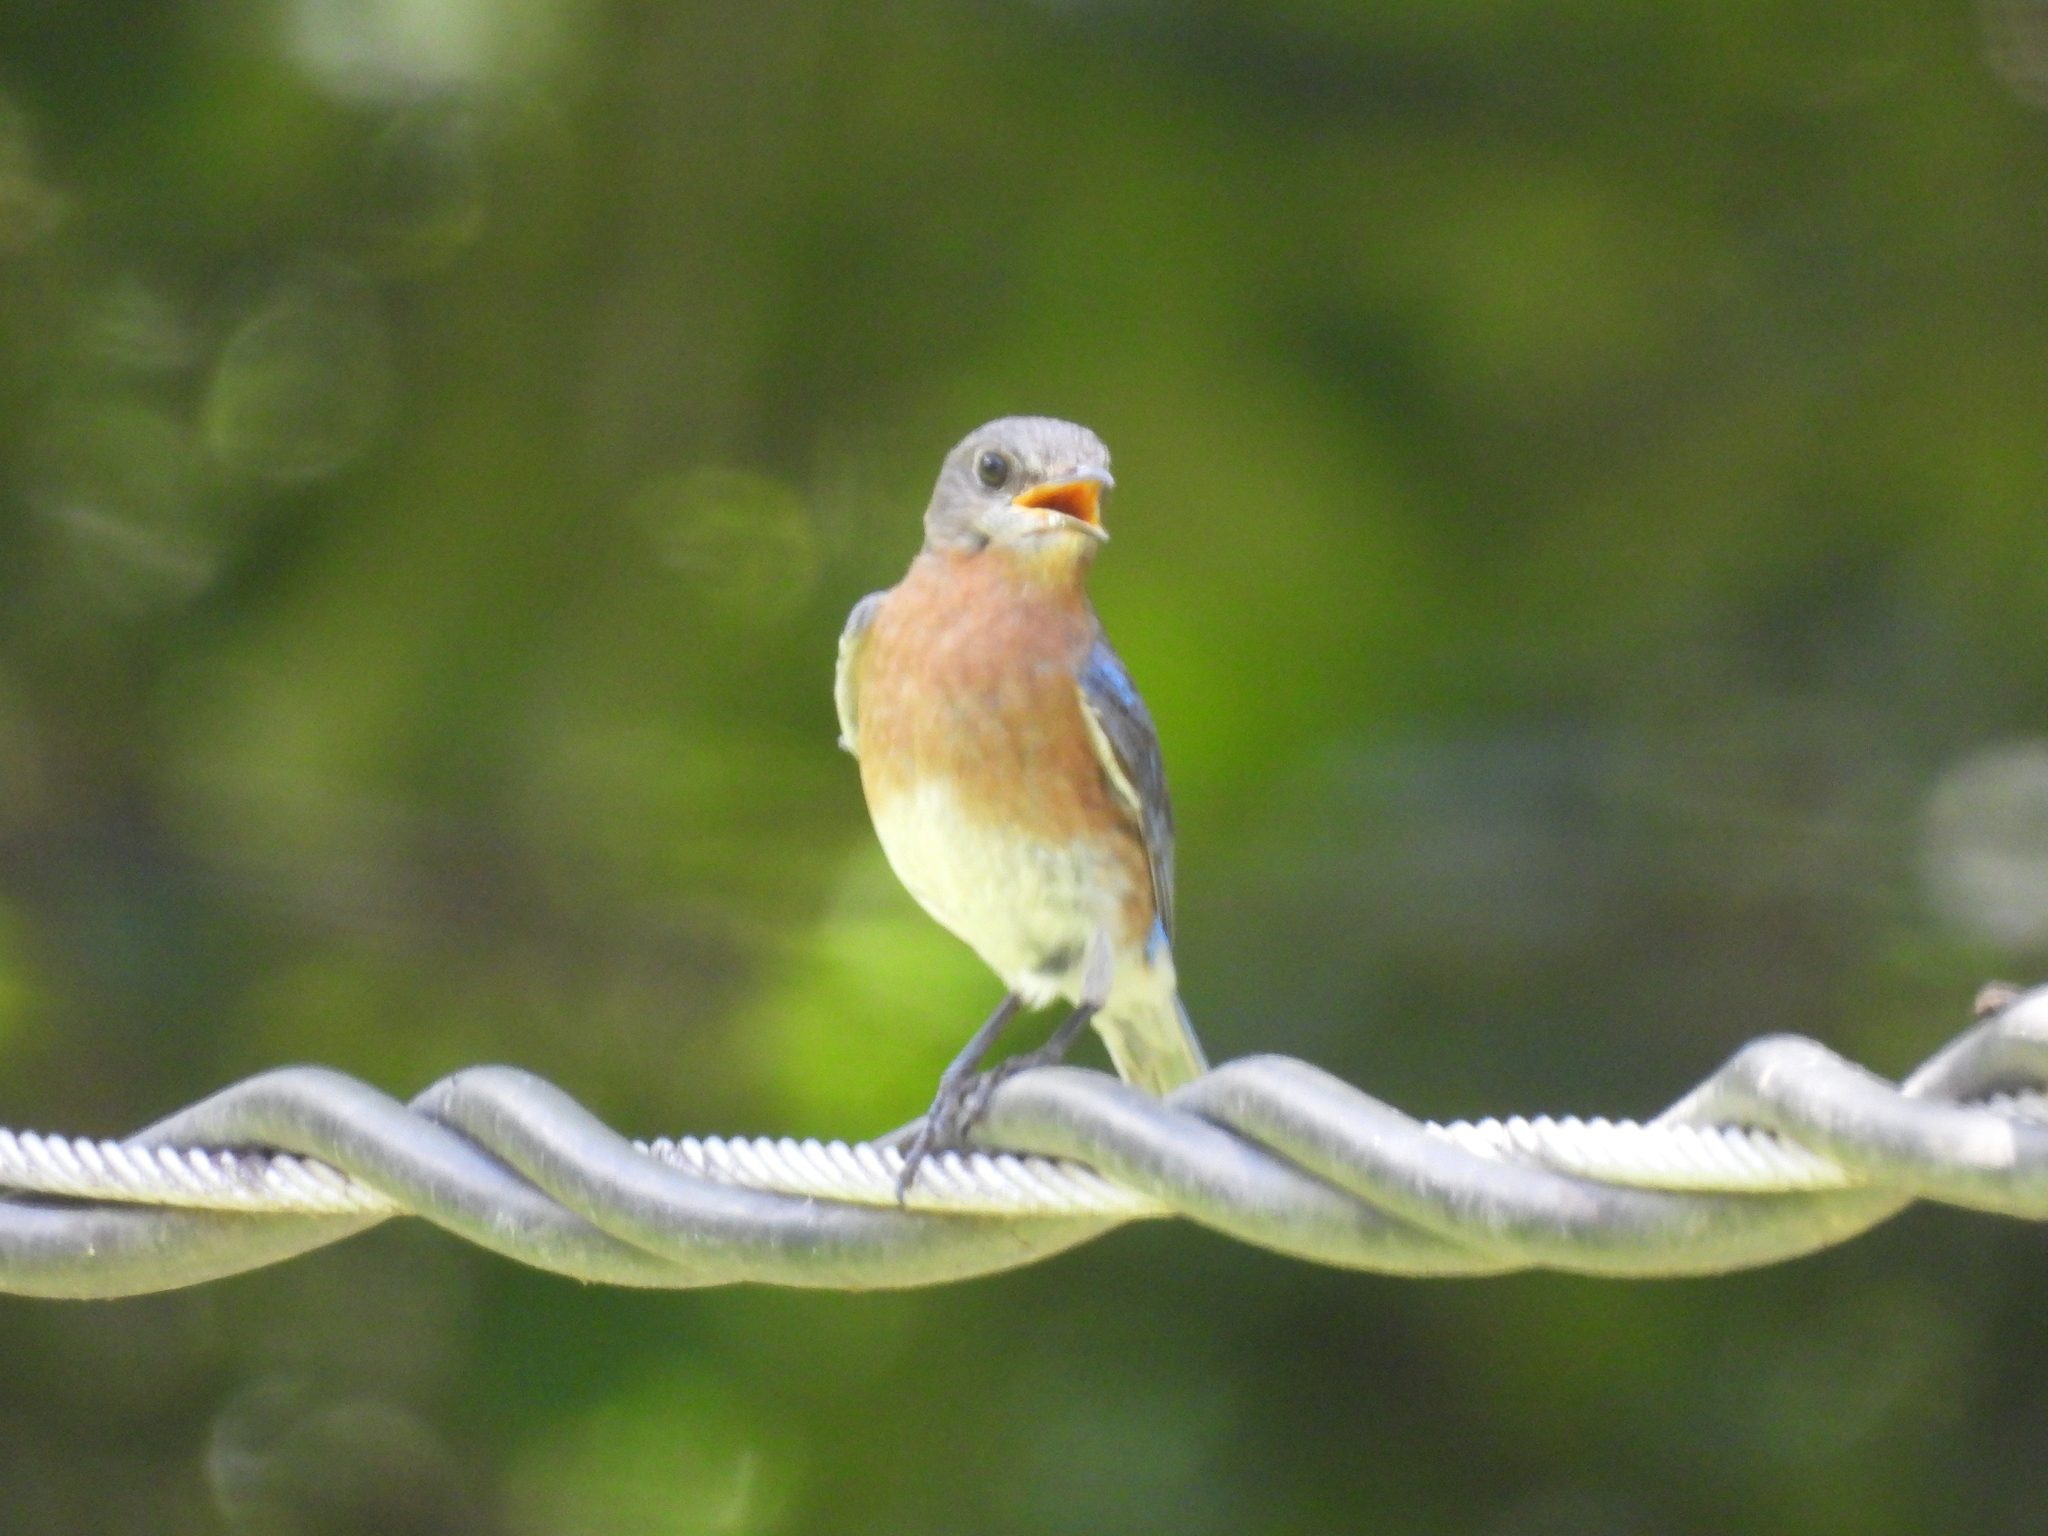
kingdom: Animalia
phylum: Chordata
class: Aves
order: Passeriformes
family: Turdidae
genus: Sialia
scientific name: Sialia sialis
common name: Eastern bluebird
